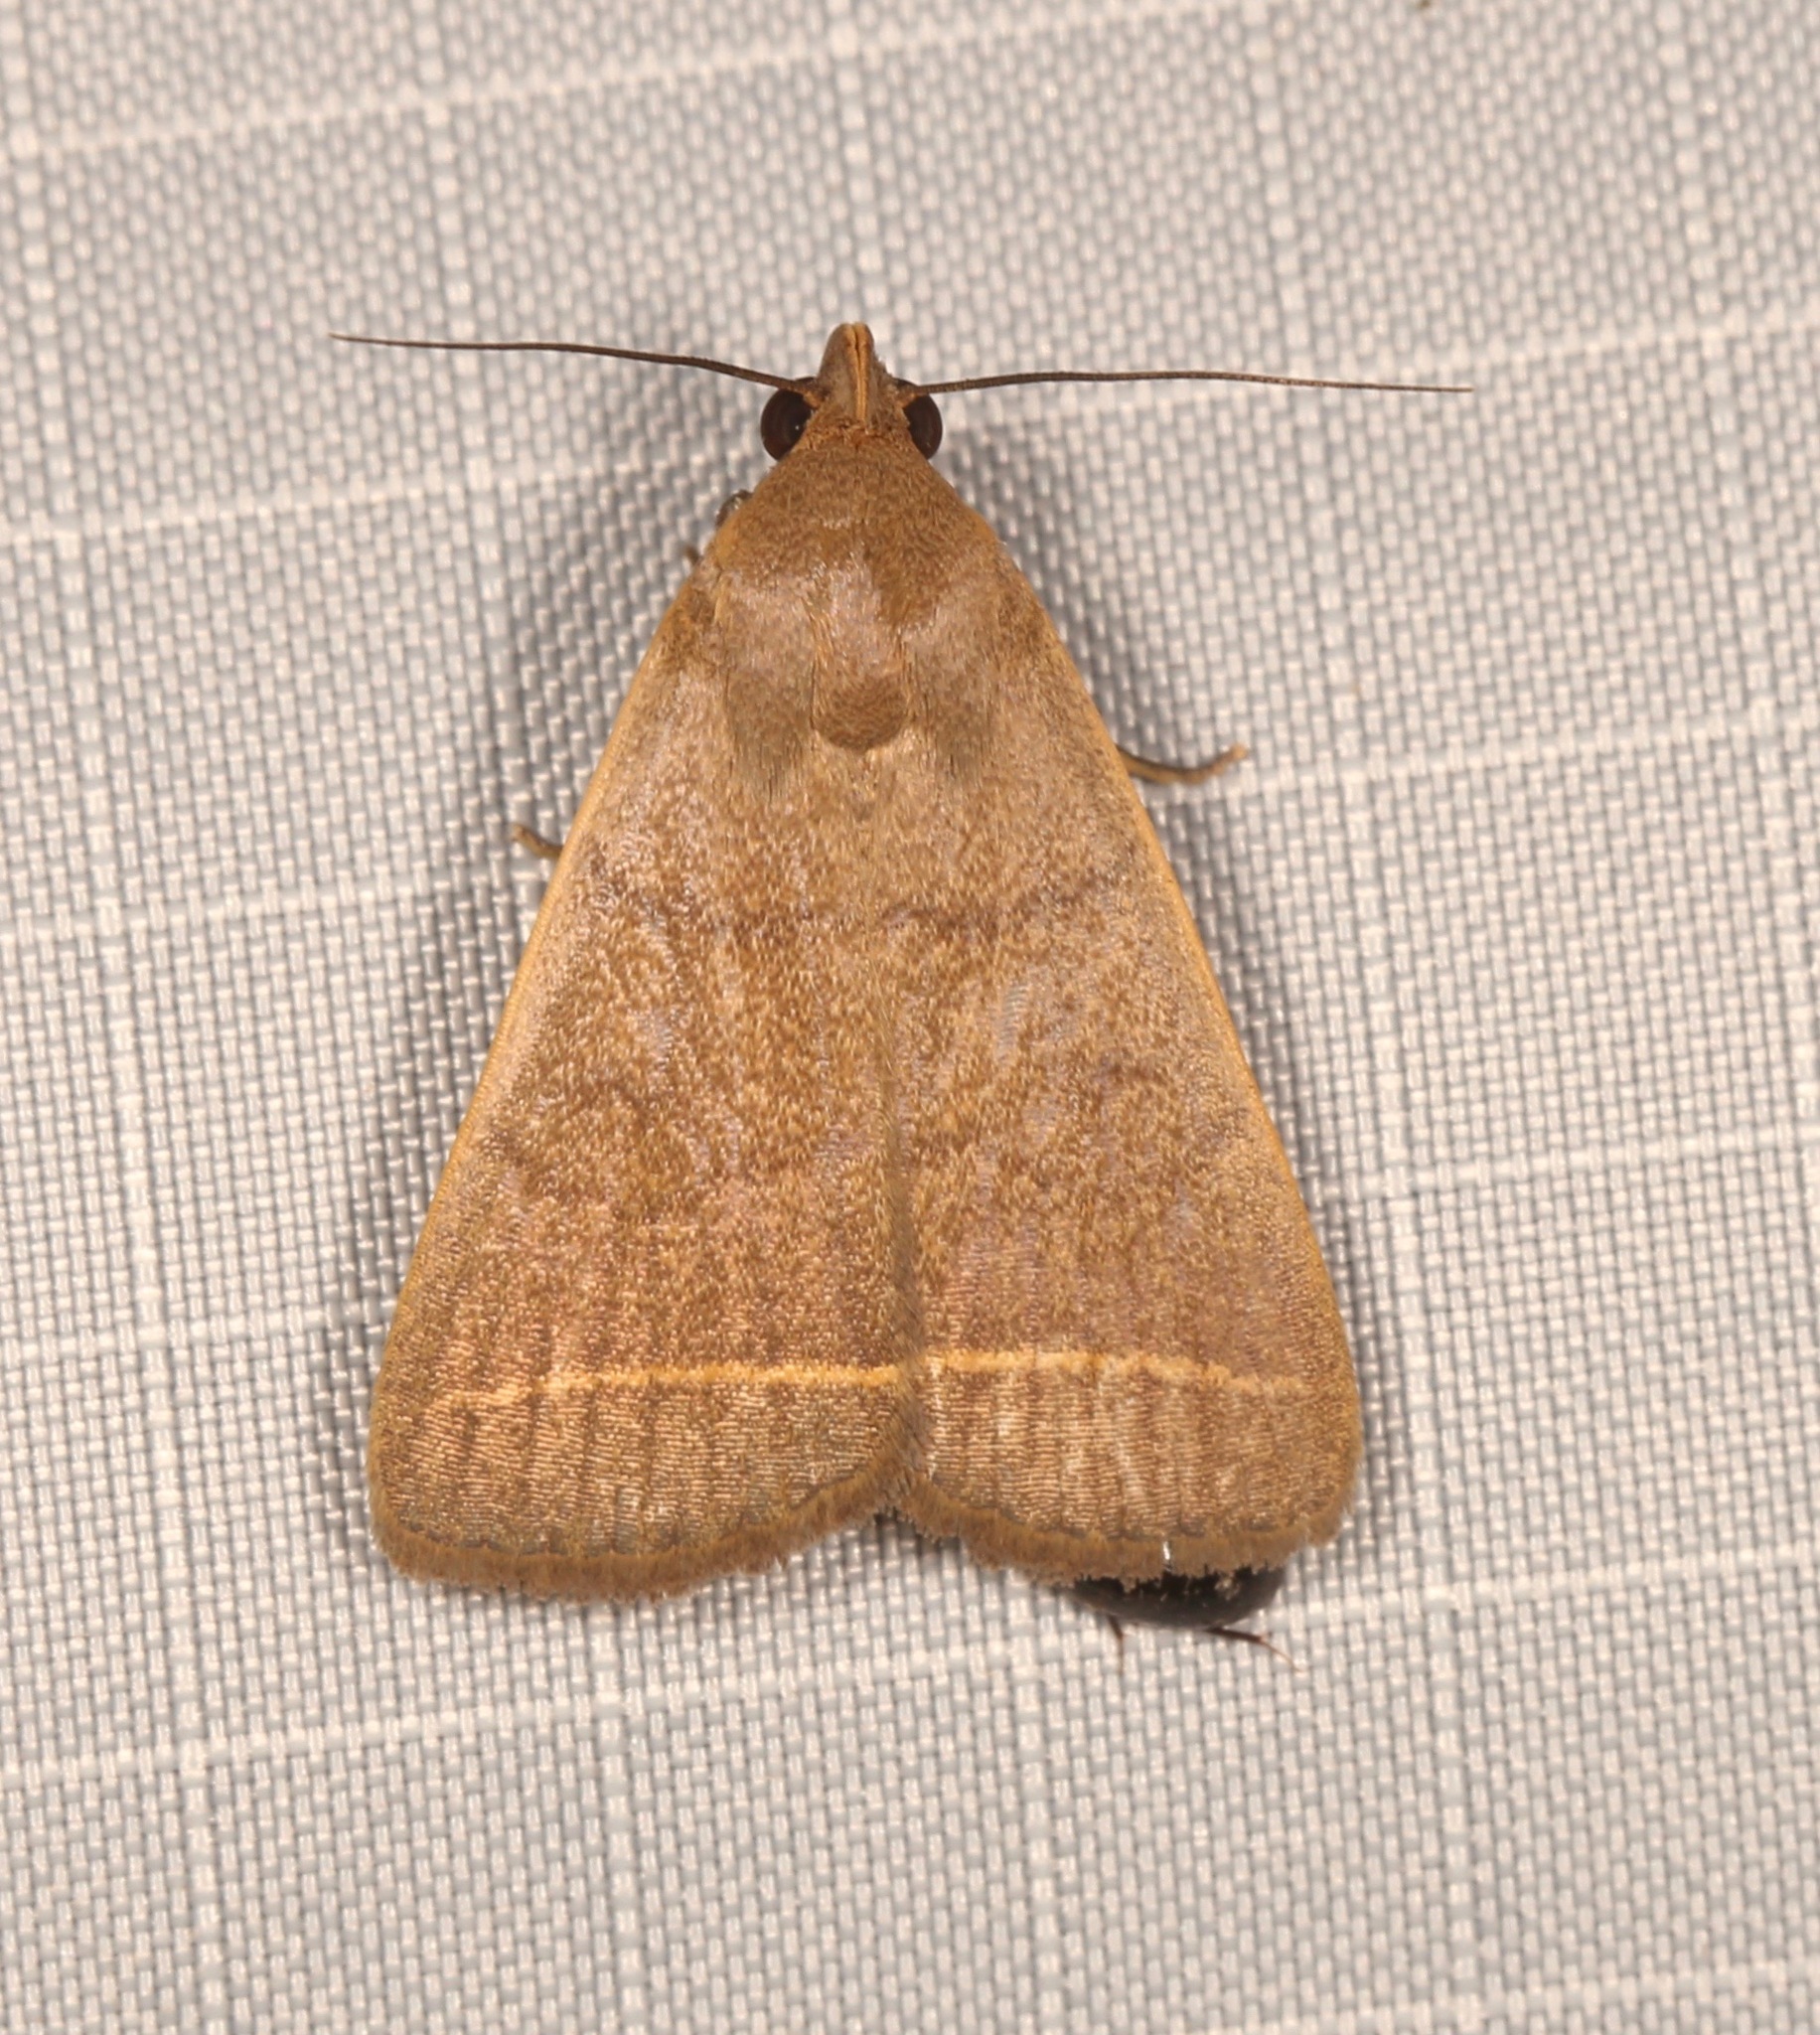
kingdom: Animalia
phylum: Arthropoda
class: Insecta
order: Lepidoptera
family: Erebidae
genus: Simplicia
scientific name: Simplicia cornicalis
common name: Tiki hut litter moth
